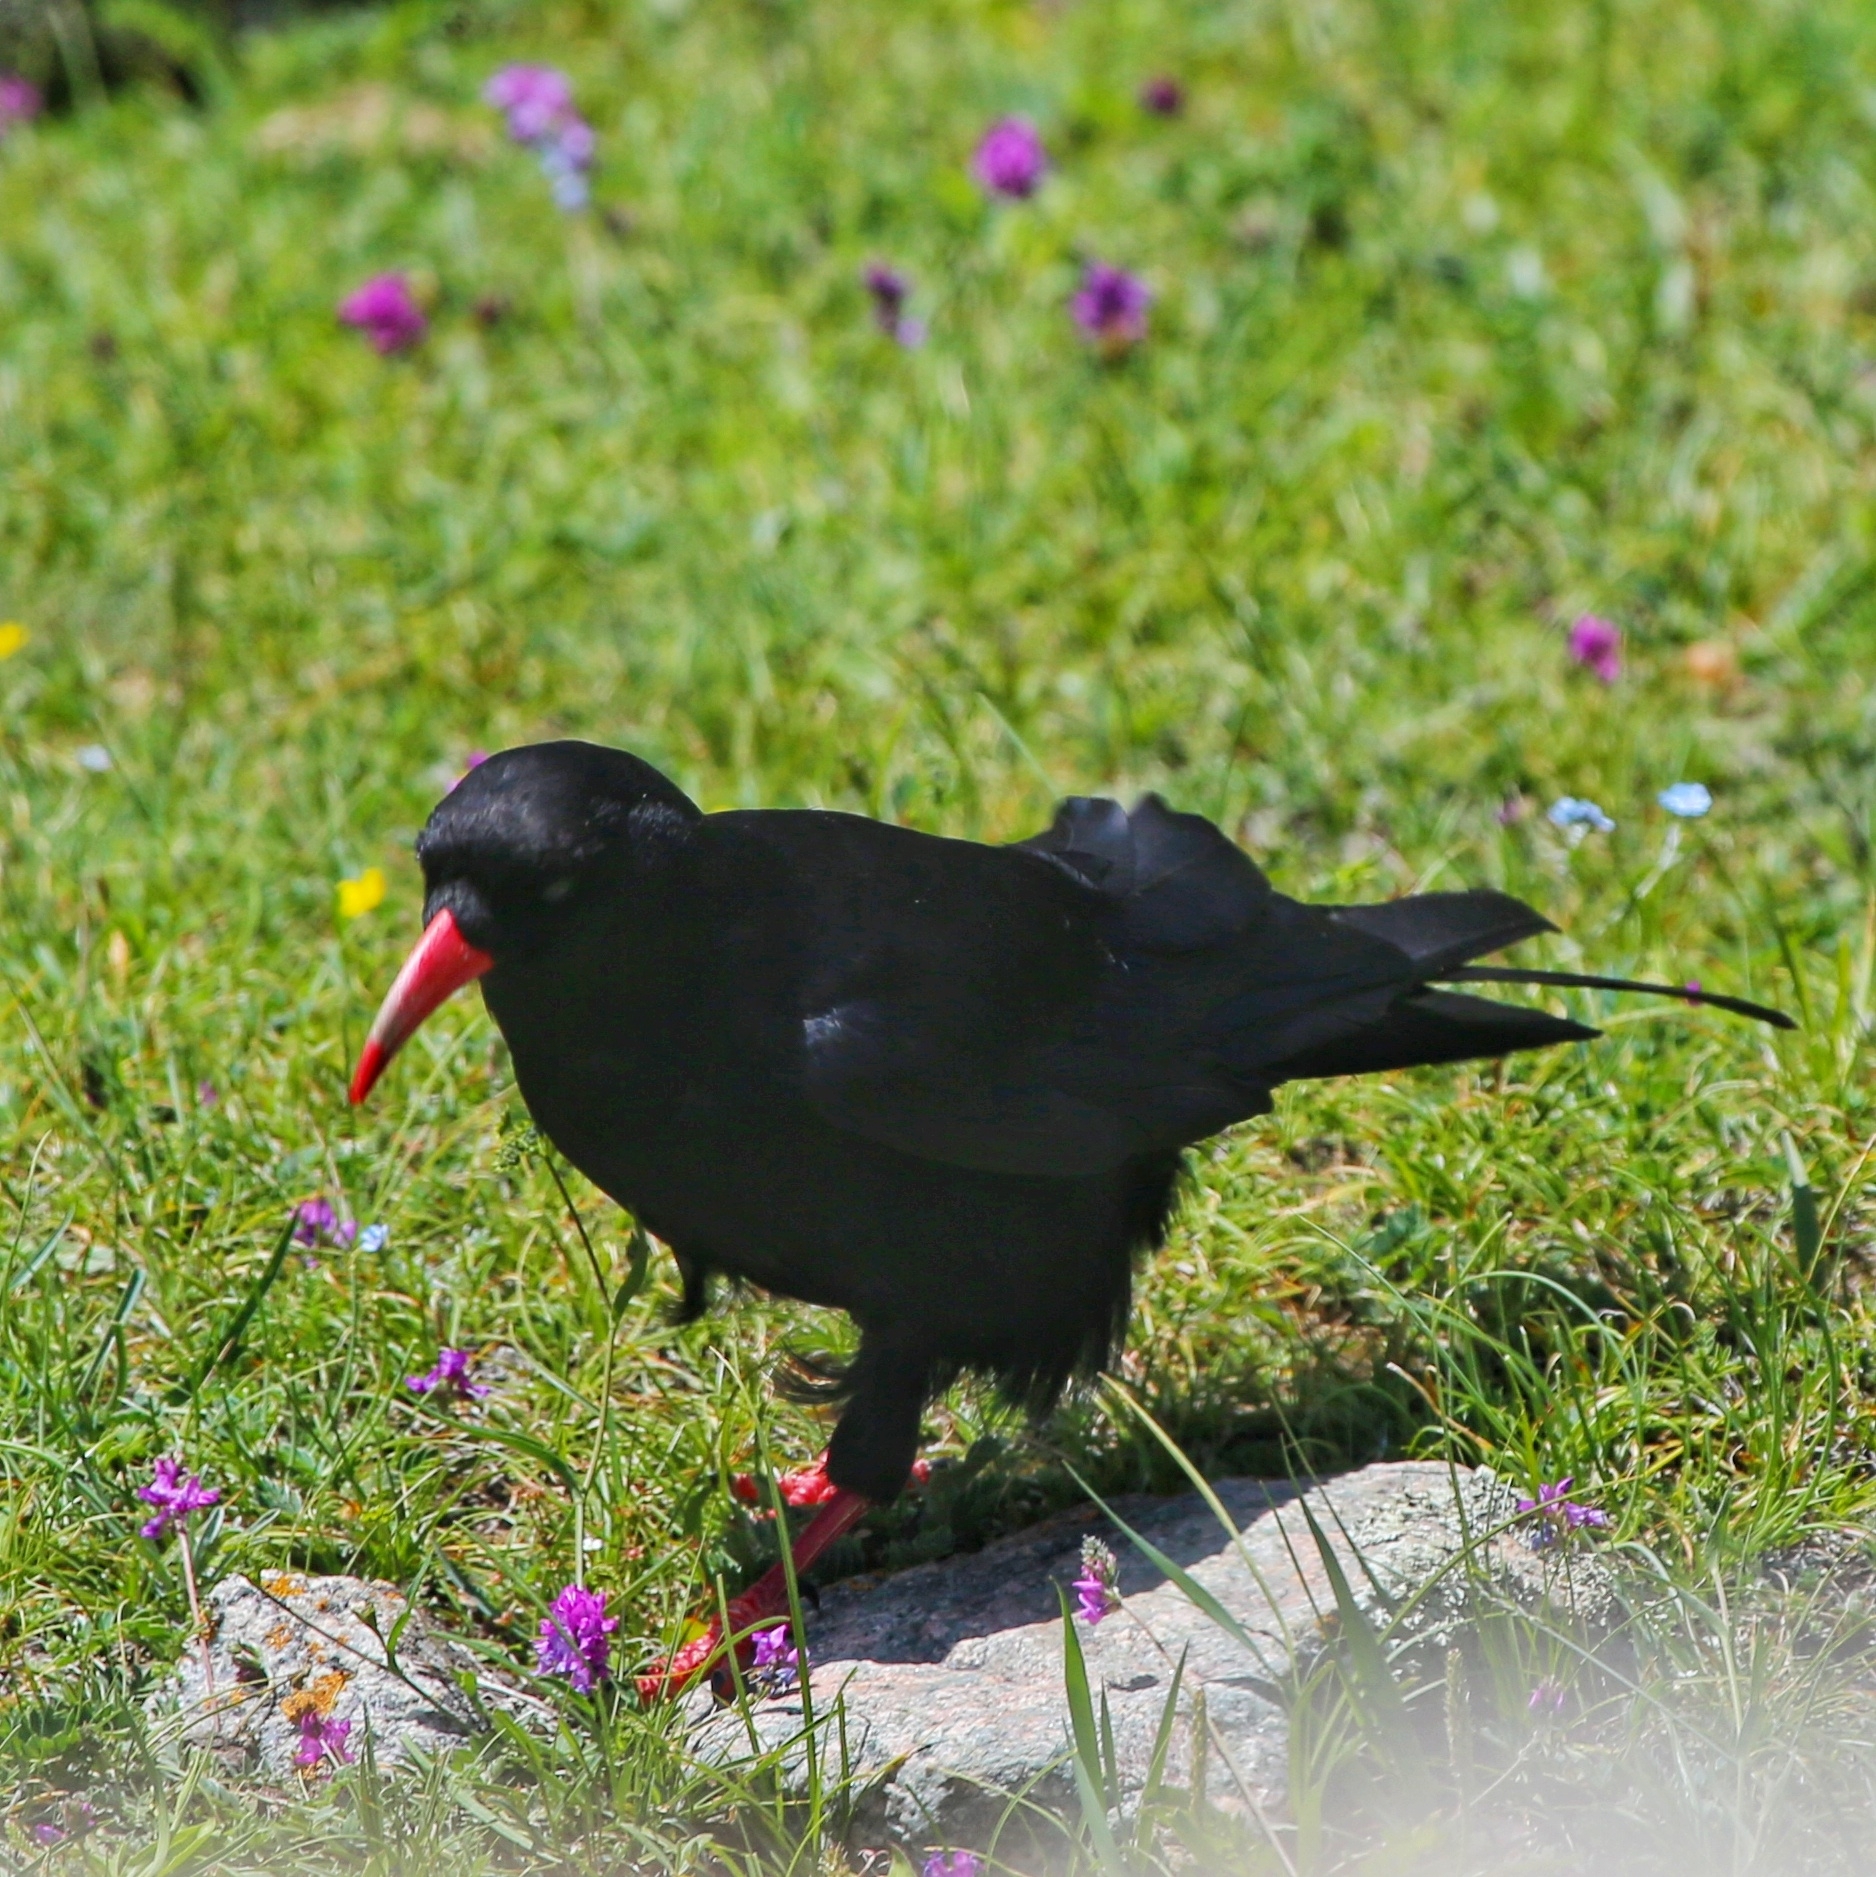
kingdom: Animalia
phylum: Chordata
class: Aves
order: Passeriformes
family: Corvidae
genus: Pyrrhocorax
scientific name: Pyrrhocorax pyrrhocorax
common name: Red-billed chough
